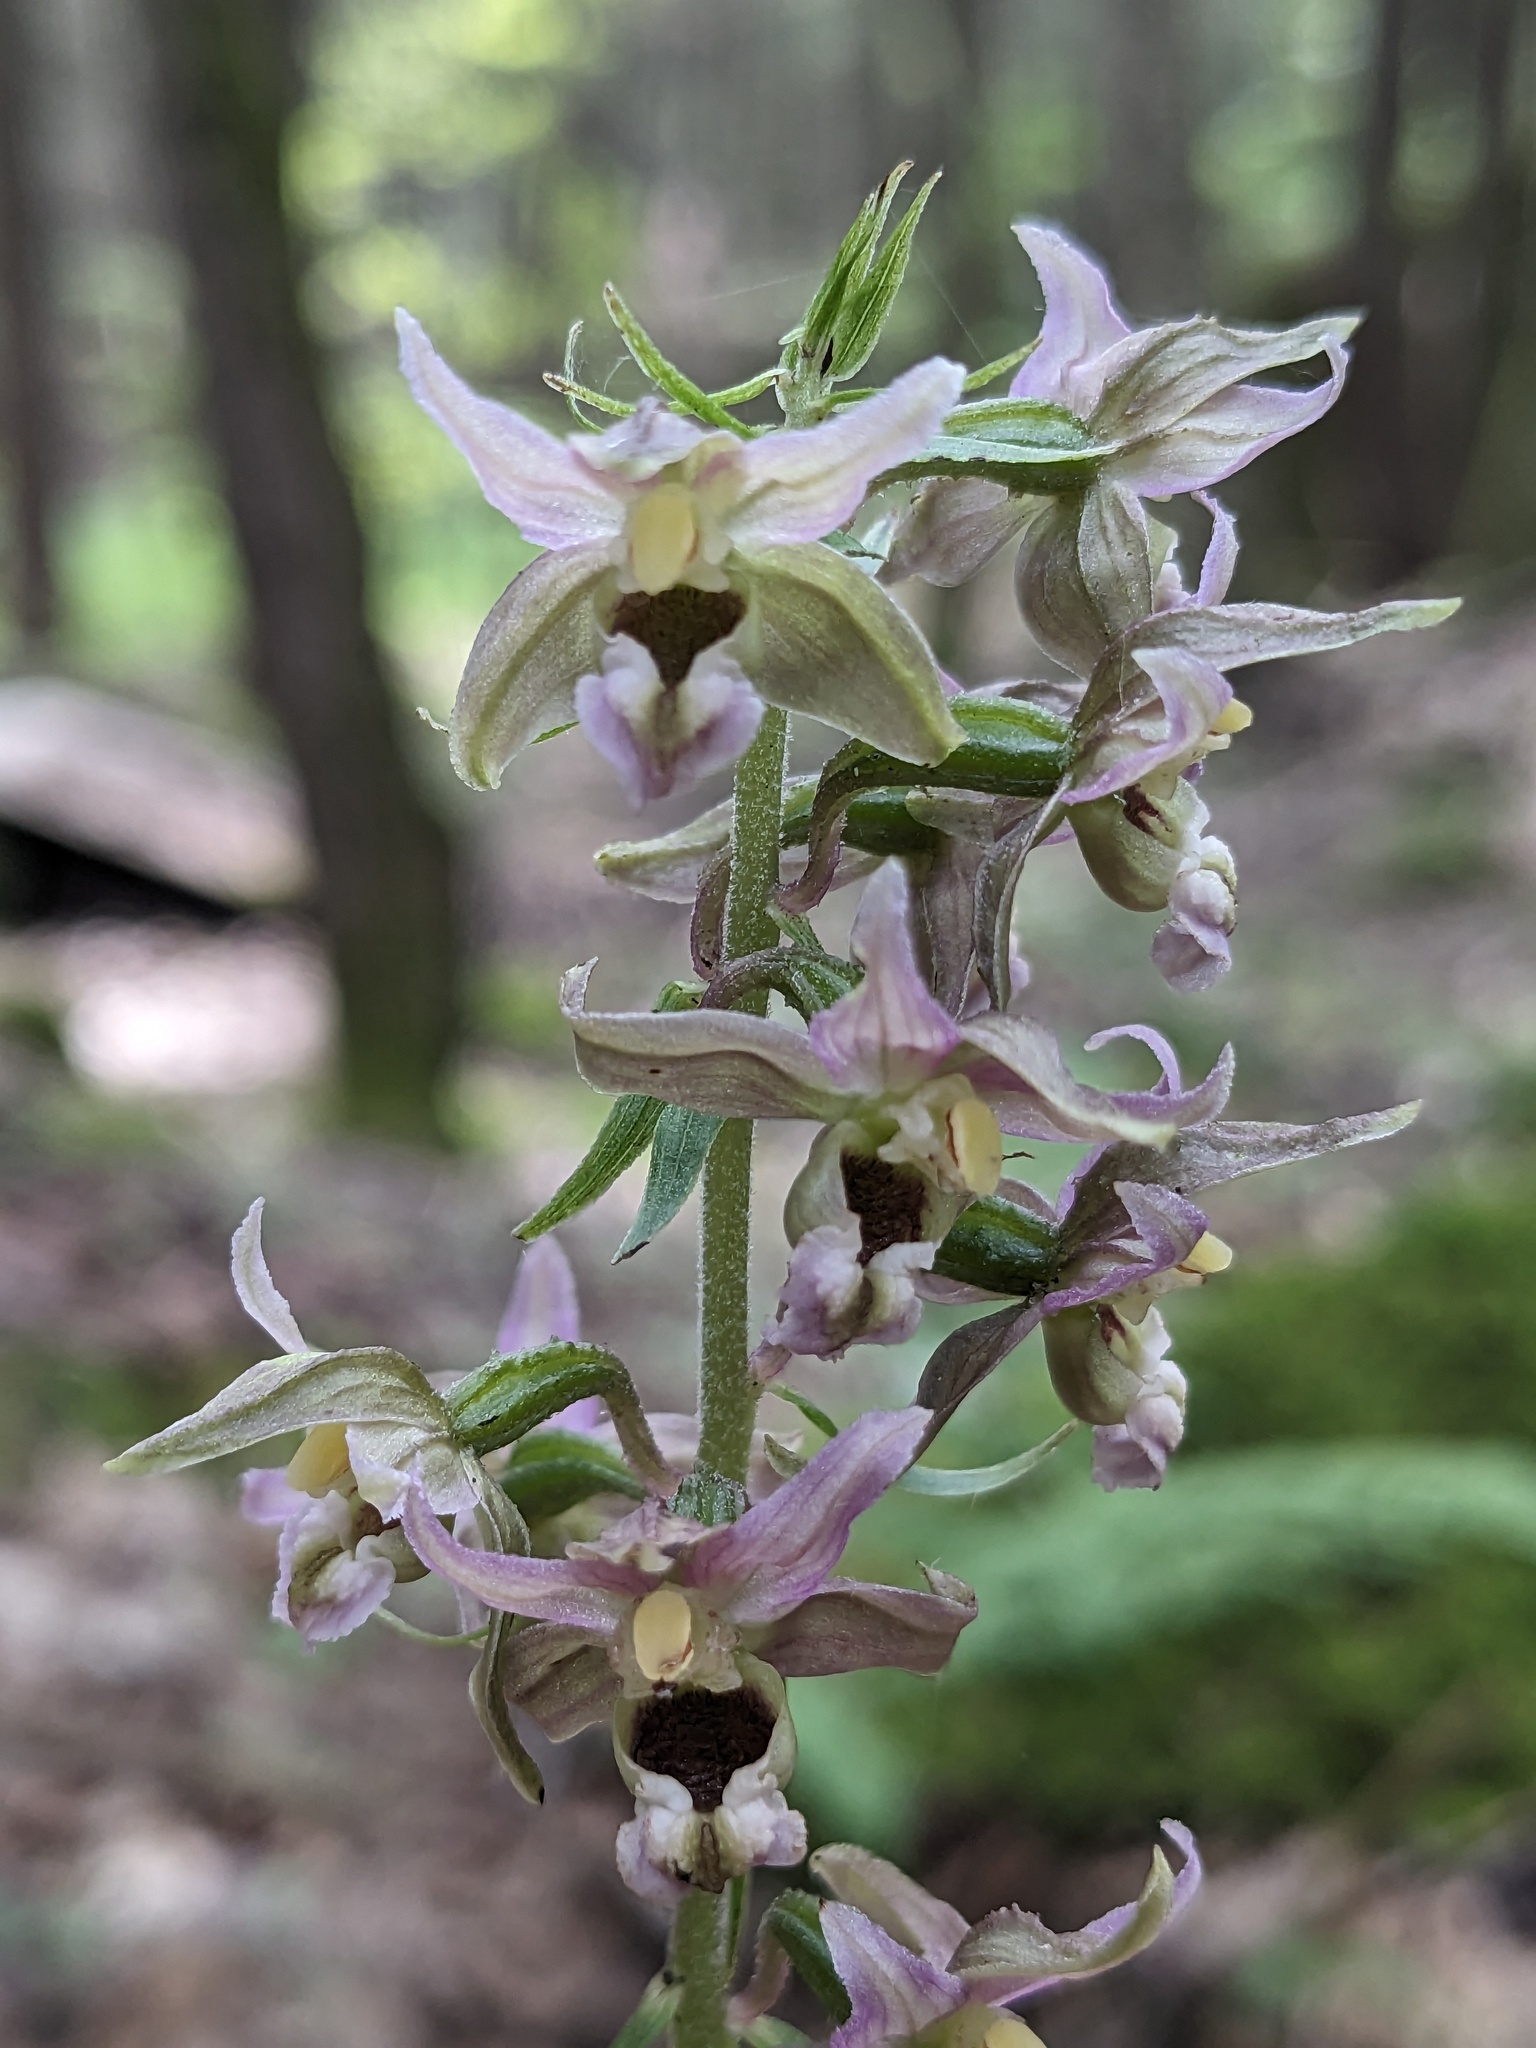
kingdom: Plantae
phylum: Tracheophyta
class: Liliopsida
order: Asparagales
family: Orchidaceae
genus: Epipactis
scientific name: Epipactis helleborine
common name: Broad-leaved helleborine
